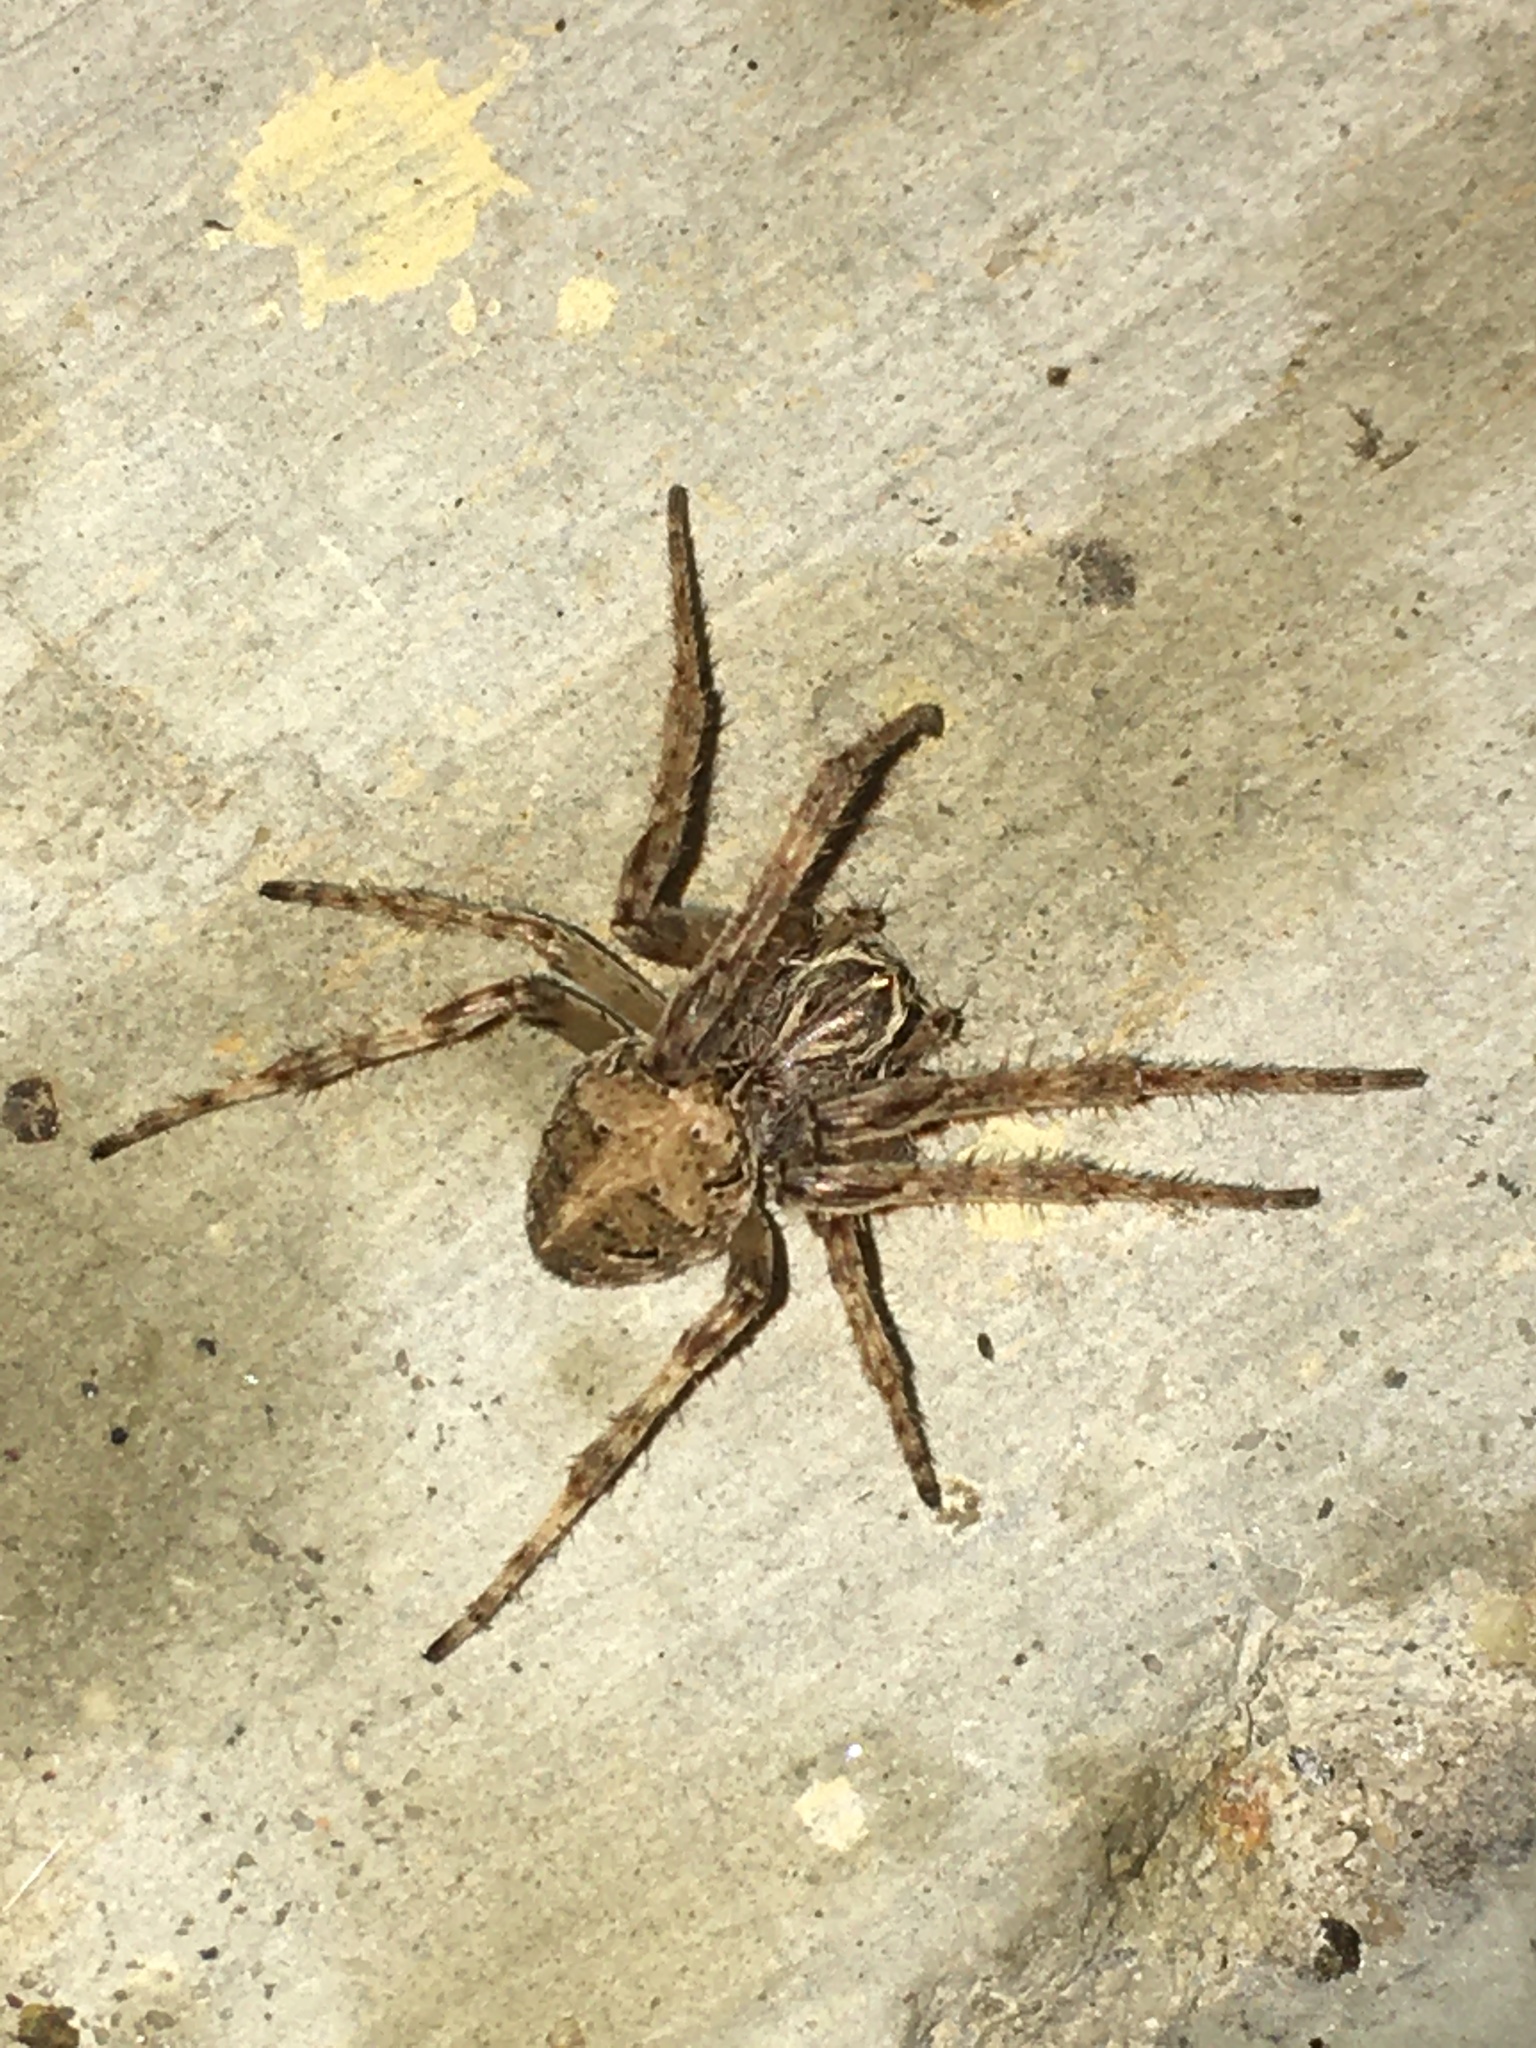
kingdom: Animalia
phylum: Arthropoda
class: Arachnida
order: Araneae
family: Araneidae
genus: Larinioides
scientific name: Larinioides sclopetarius
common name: Bridge orbweaver
